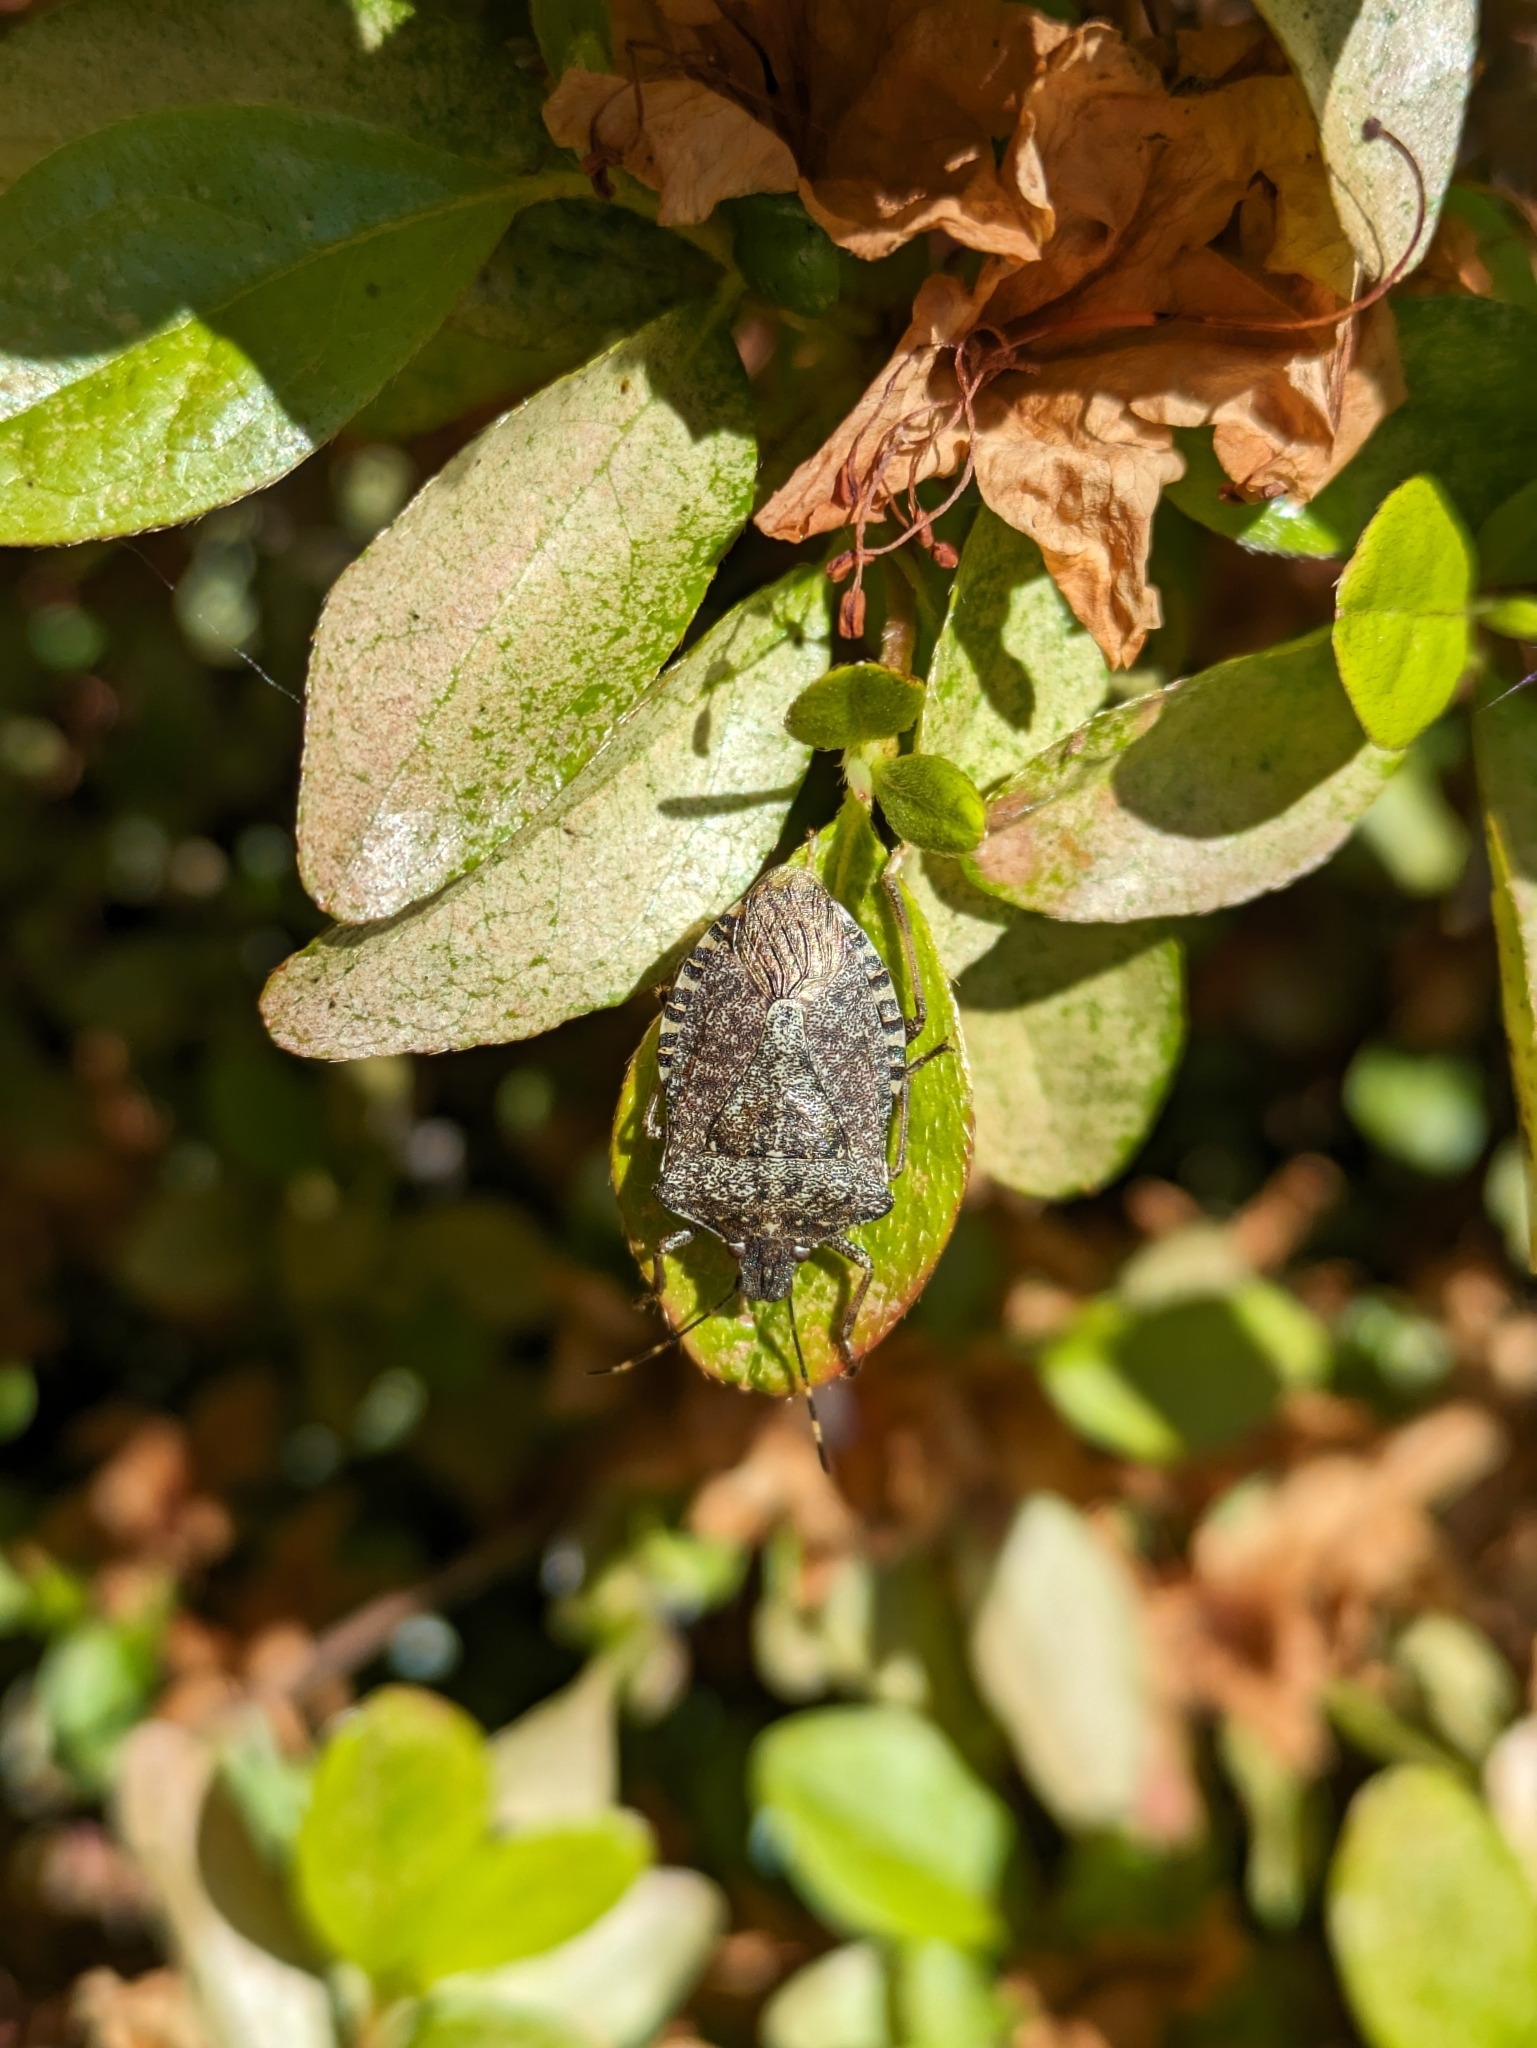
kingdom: Animalia
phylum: Arthropoda
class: Insecta
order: Hemiptera
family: Pentatomidae
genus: Halyomorpha
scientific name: Halyomorpha halys
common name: Brown marmorated stink bug
